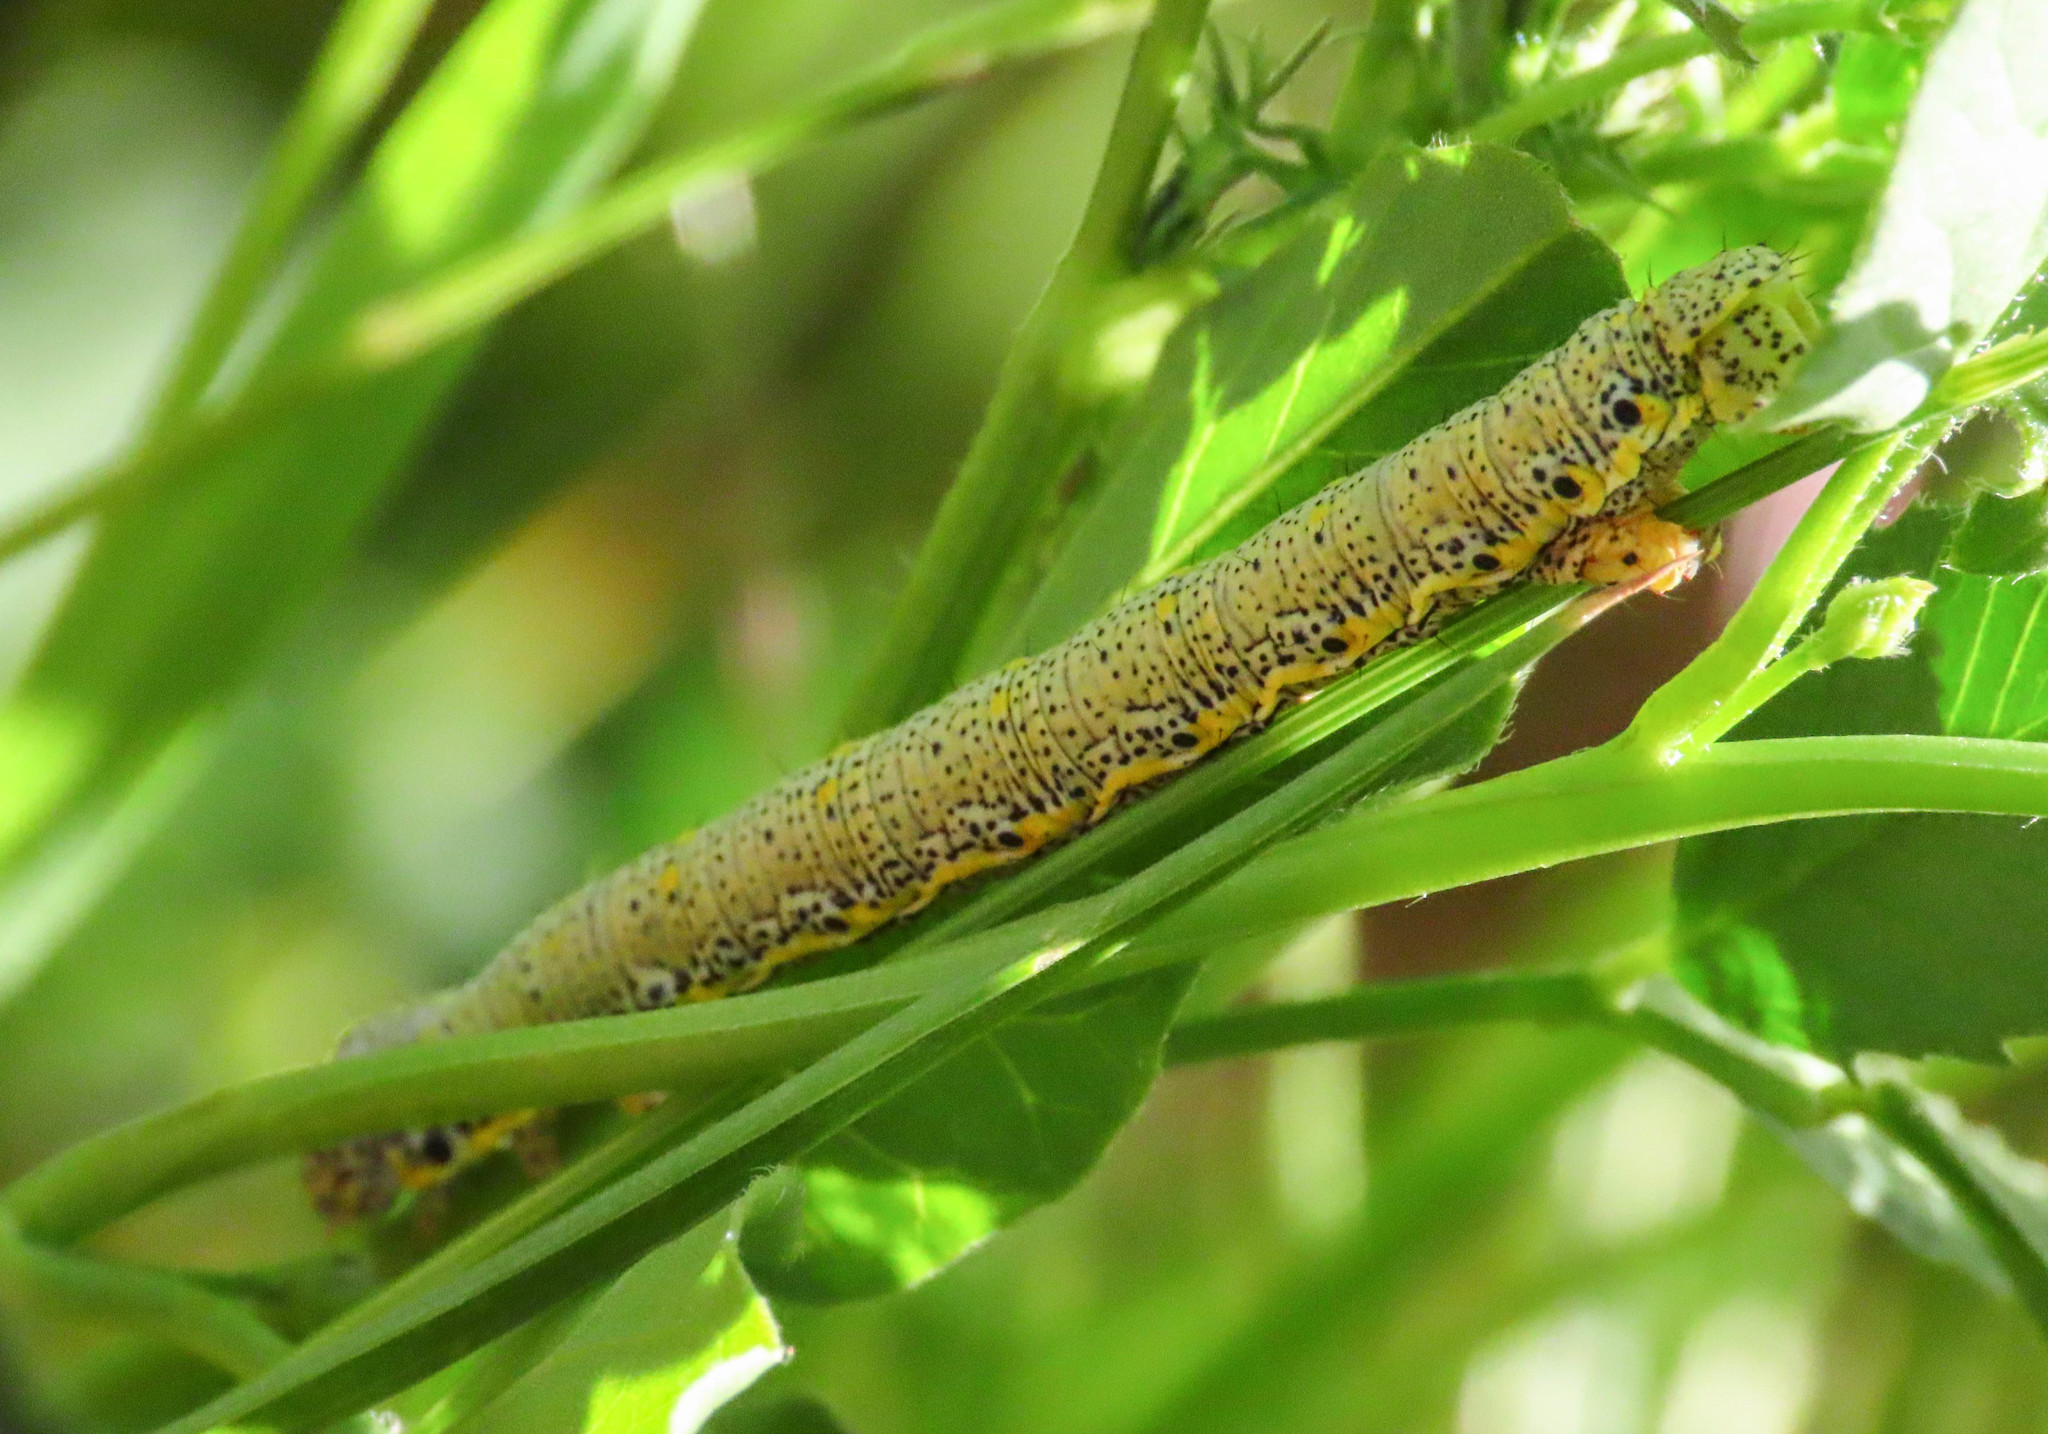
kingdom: Animalia
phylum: Arthropoda
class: Insecta
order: Lepidoptera
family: Geometridae
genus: Lycia
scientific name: Lycia florentina
